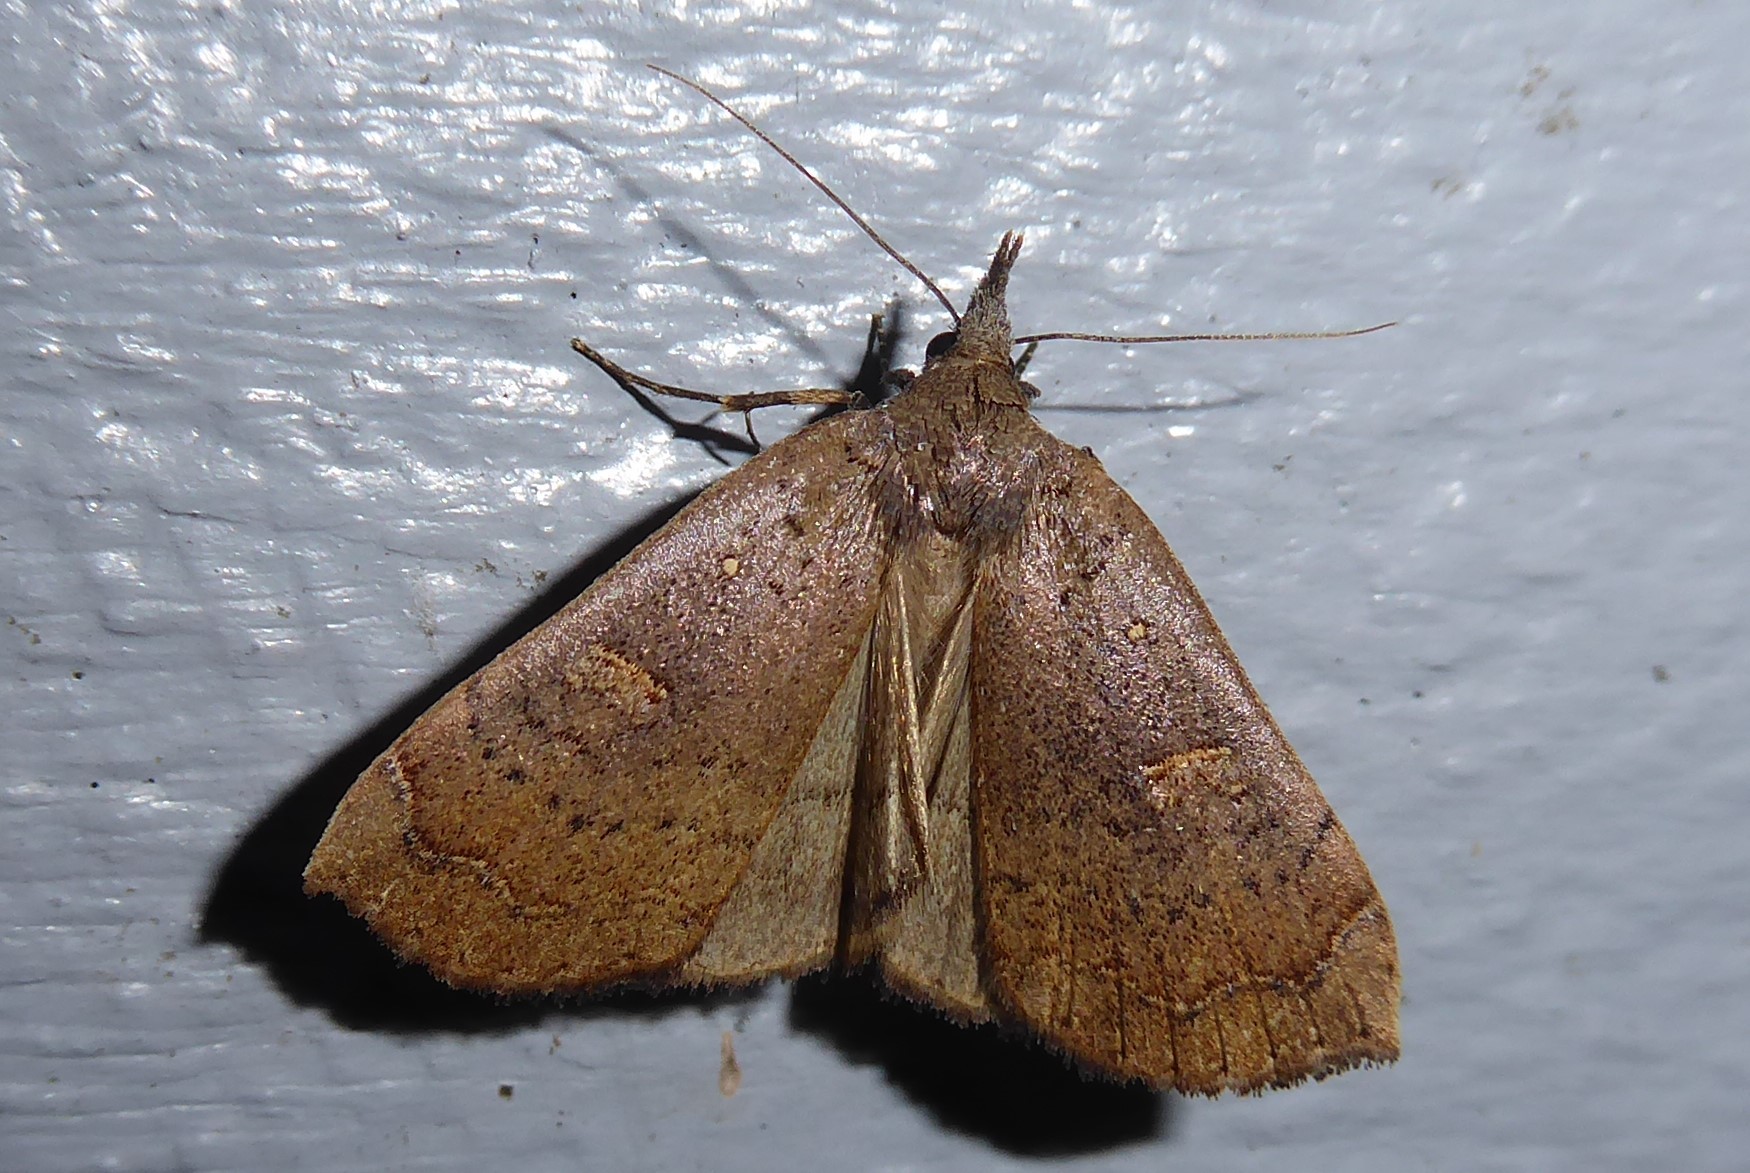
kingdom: Animalia
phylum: Arthropoda
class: Insecta
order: Lepidoptera
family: Erebidae
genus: Rhapsa
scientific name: Rhapsa scotosialis
